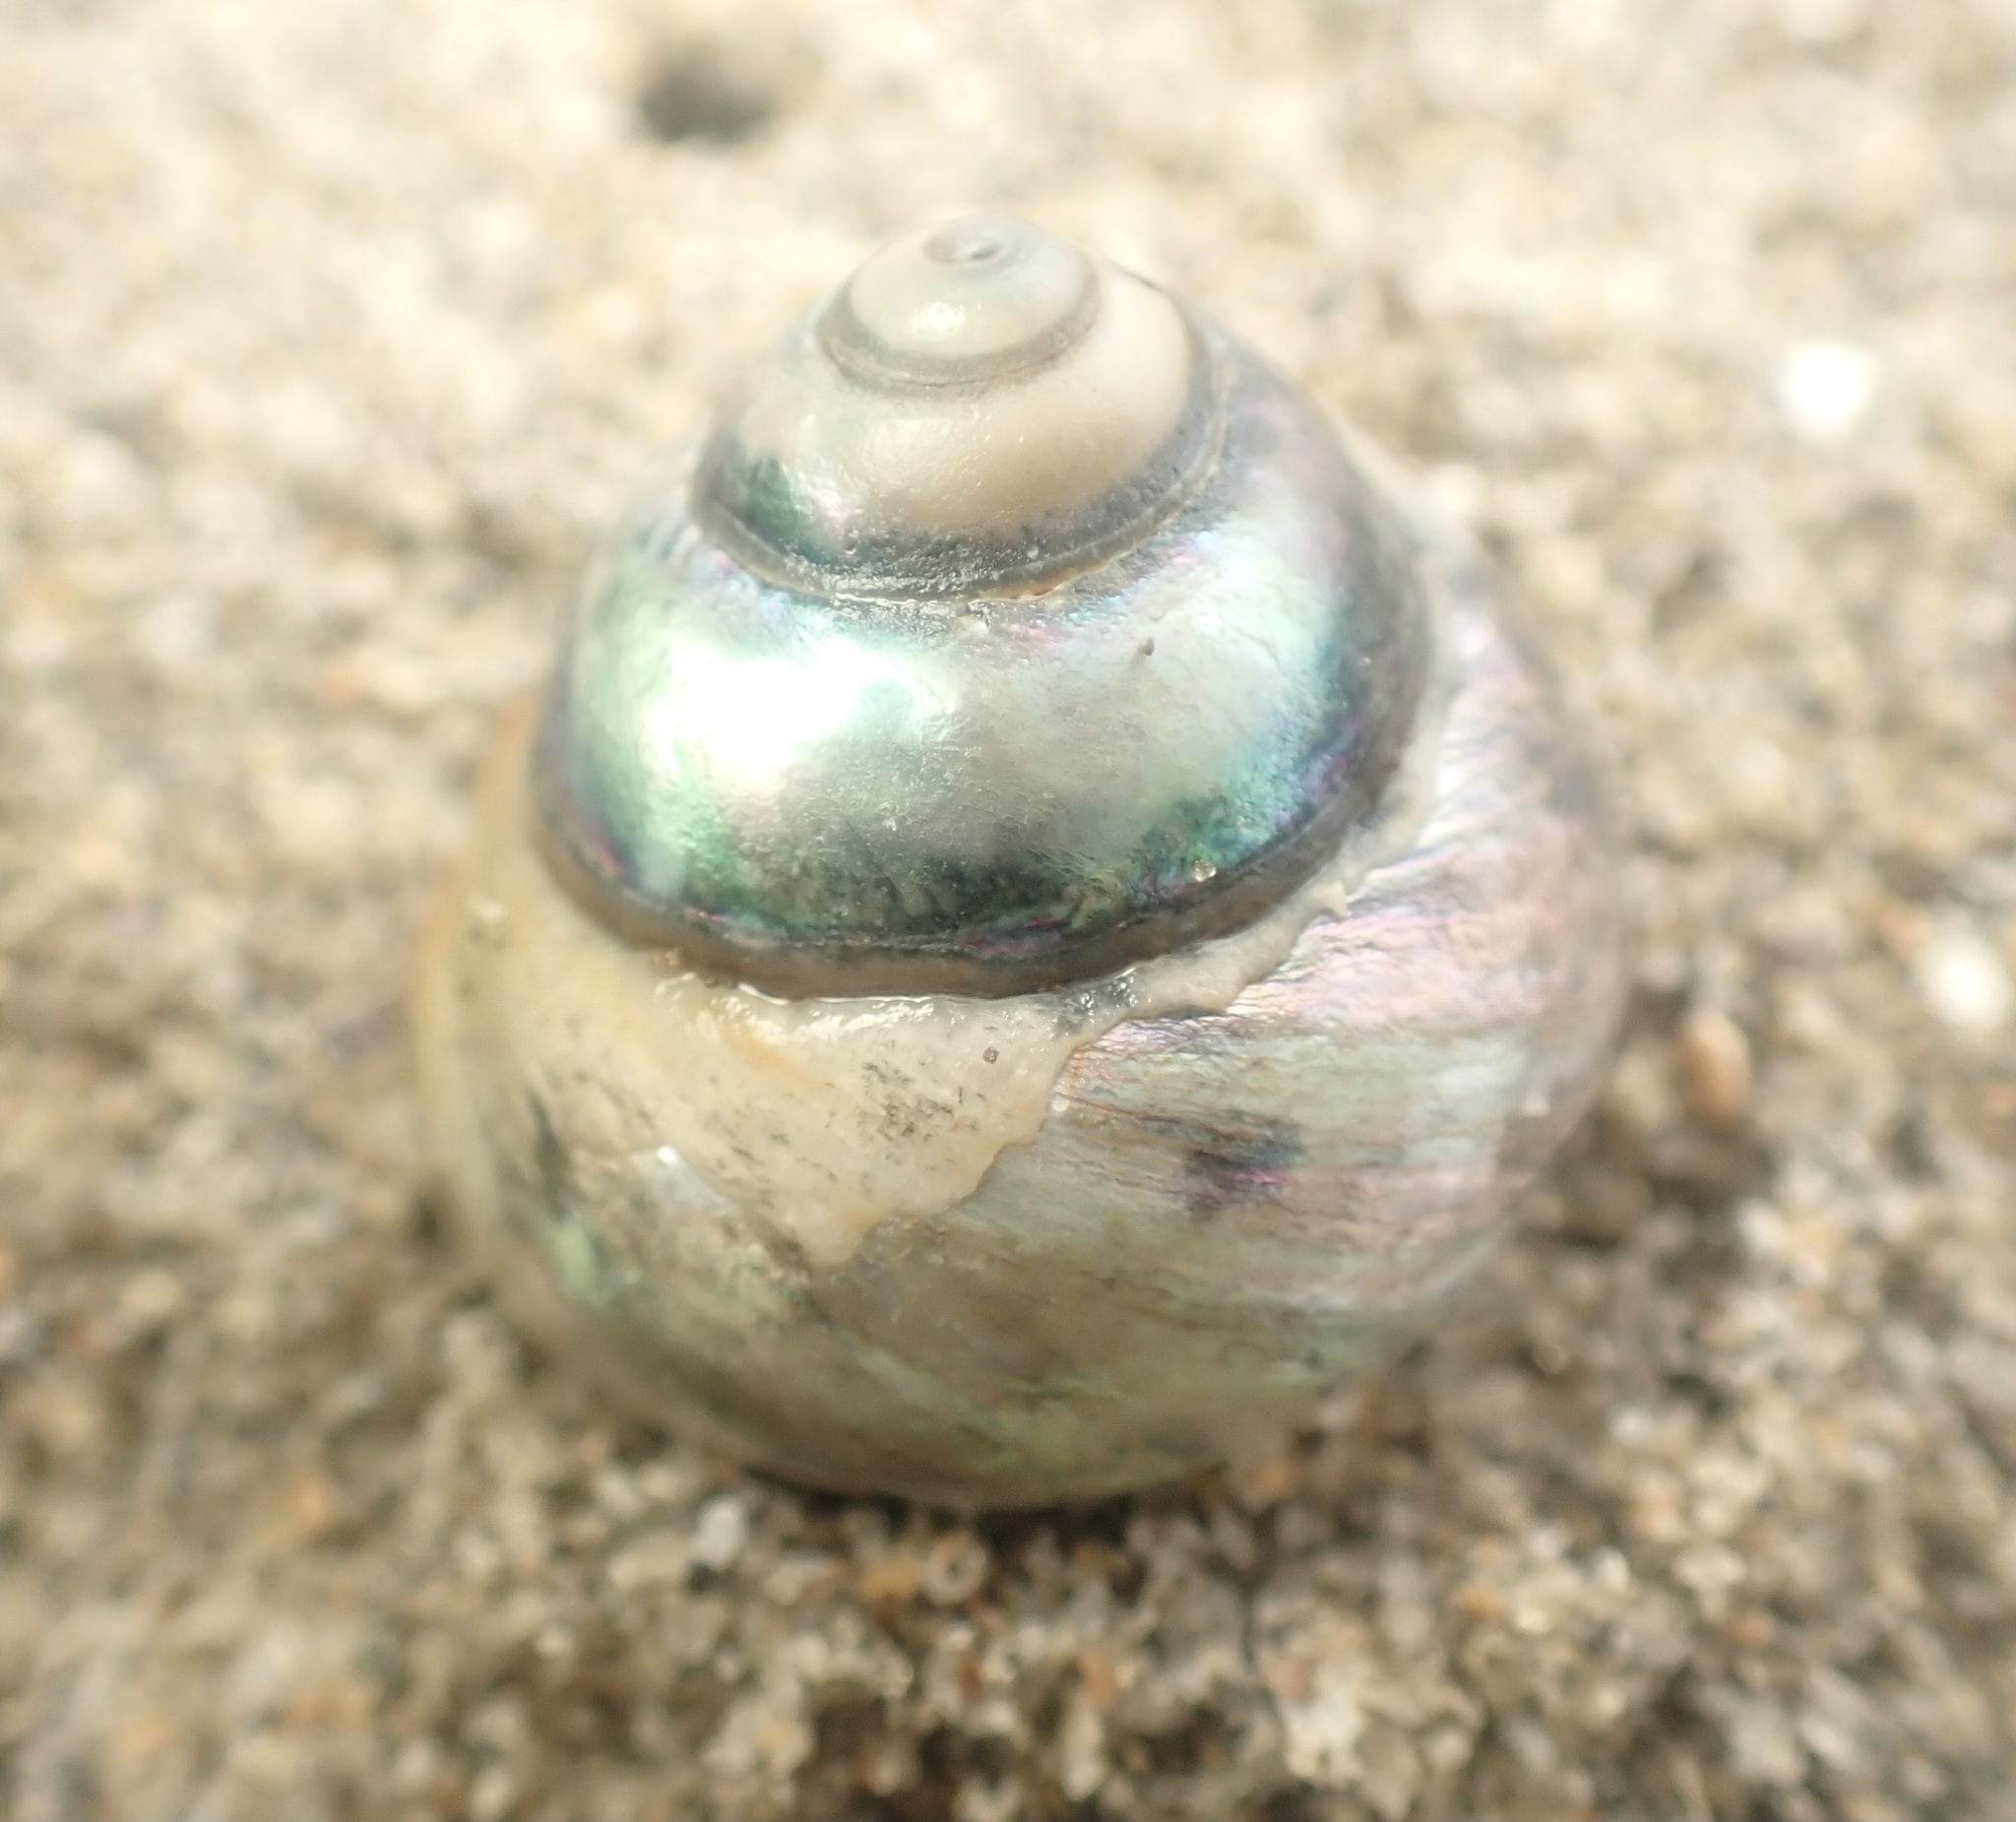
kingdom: Animalia
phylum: Mollusca
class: Gastropoda
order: Trochida
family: Tegulidae
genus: Tegula
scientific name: Tegula brunnea
